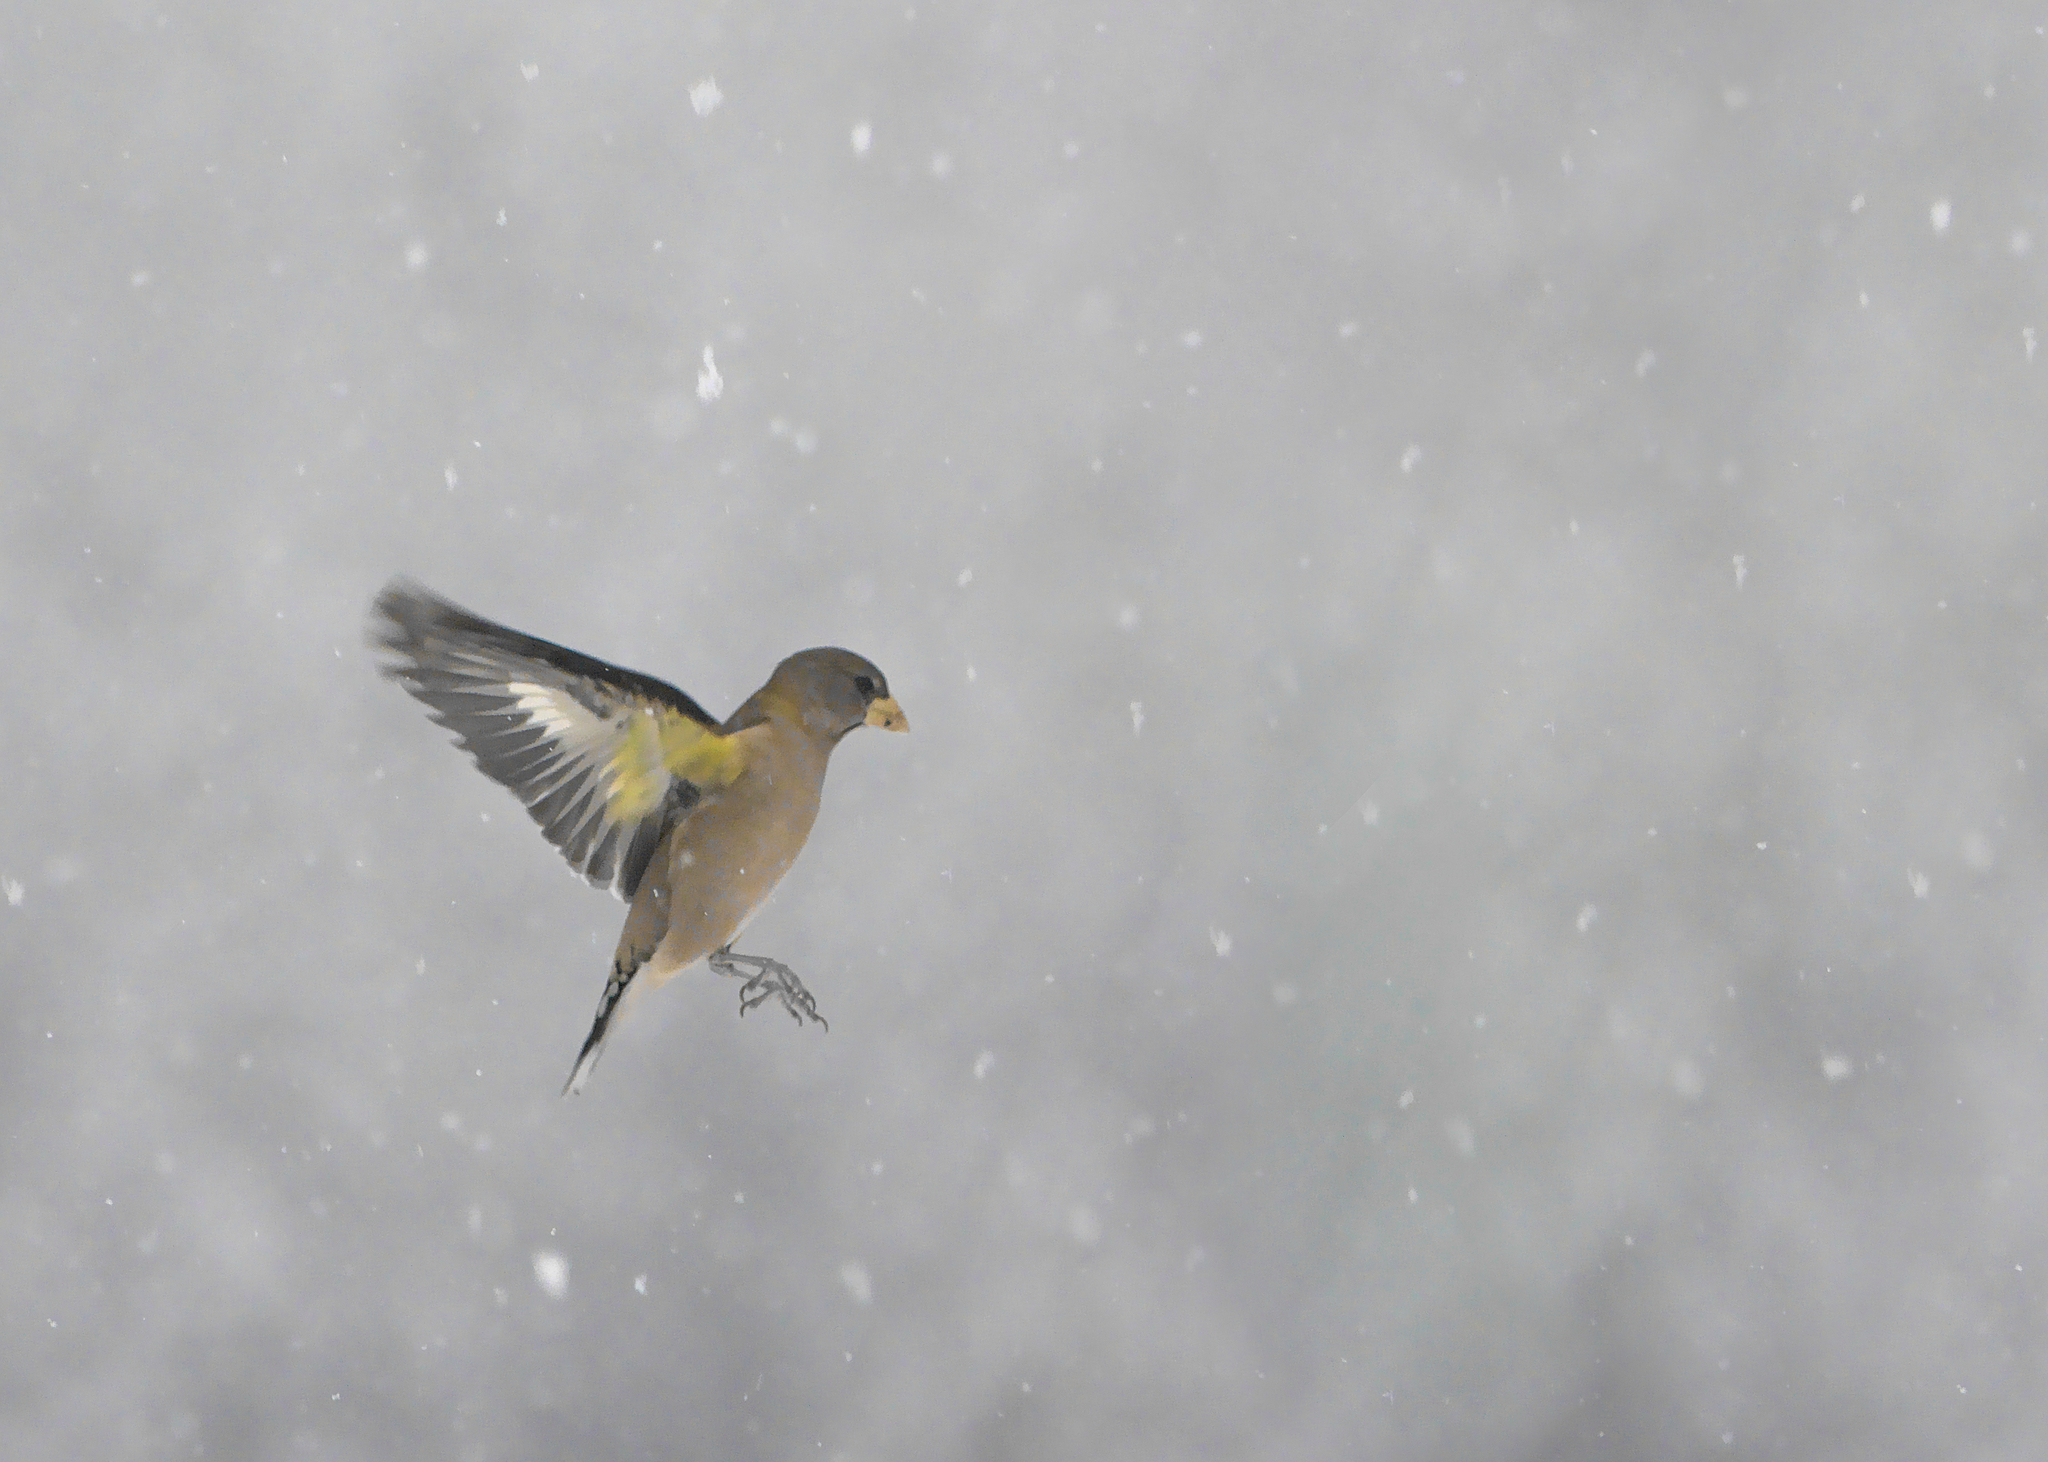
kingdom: Animalia
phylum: Chordata
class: Aves
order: Passeriformes
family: Fringillidae
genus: Hesperiphona
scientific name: Hesperiphona vespertina
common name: Evening grosbeak
